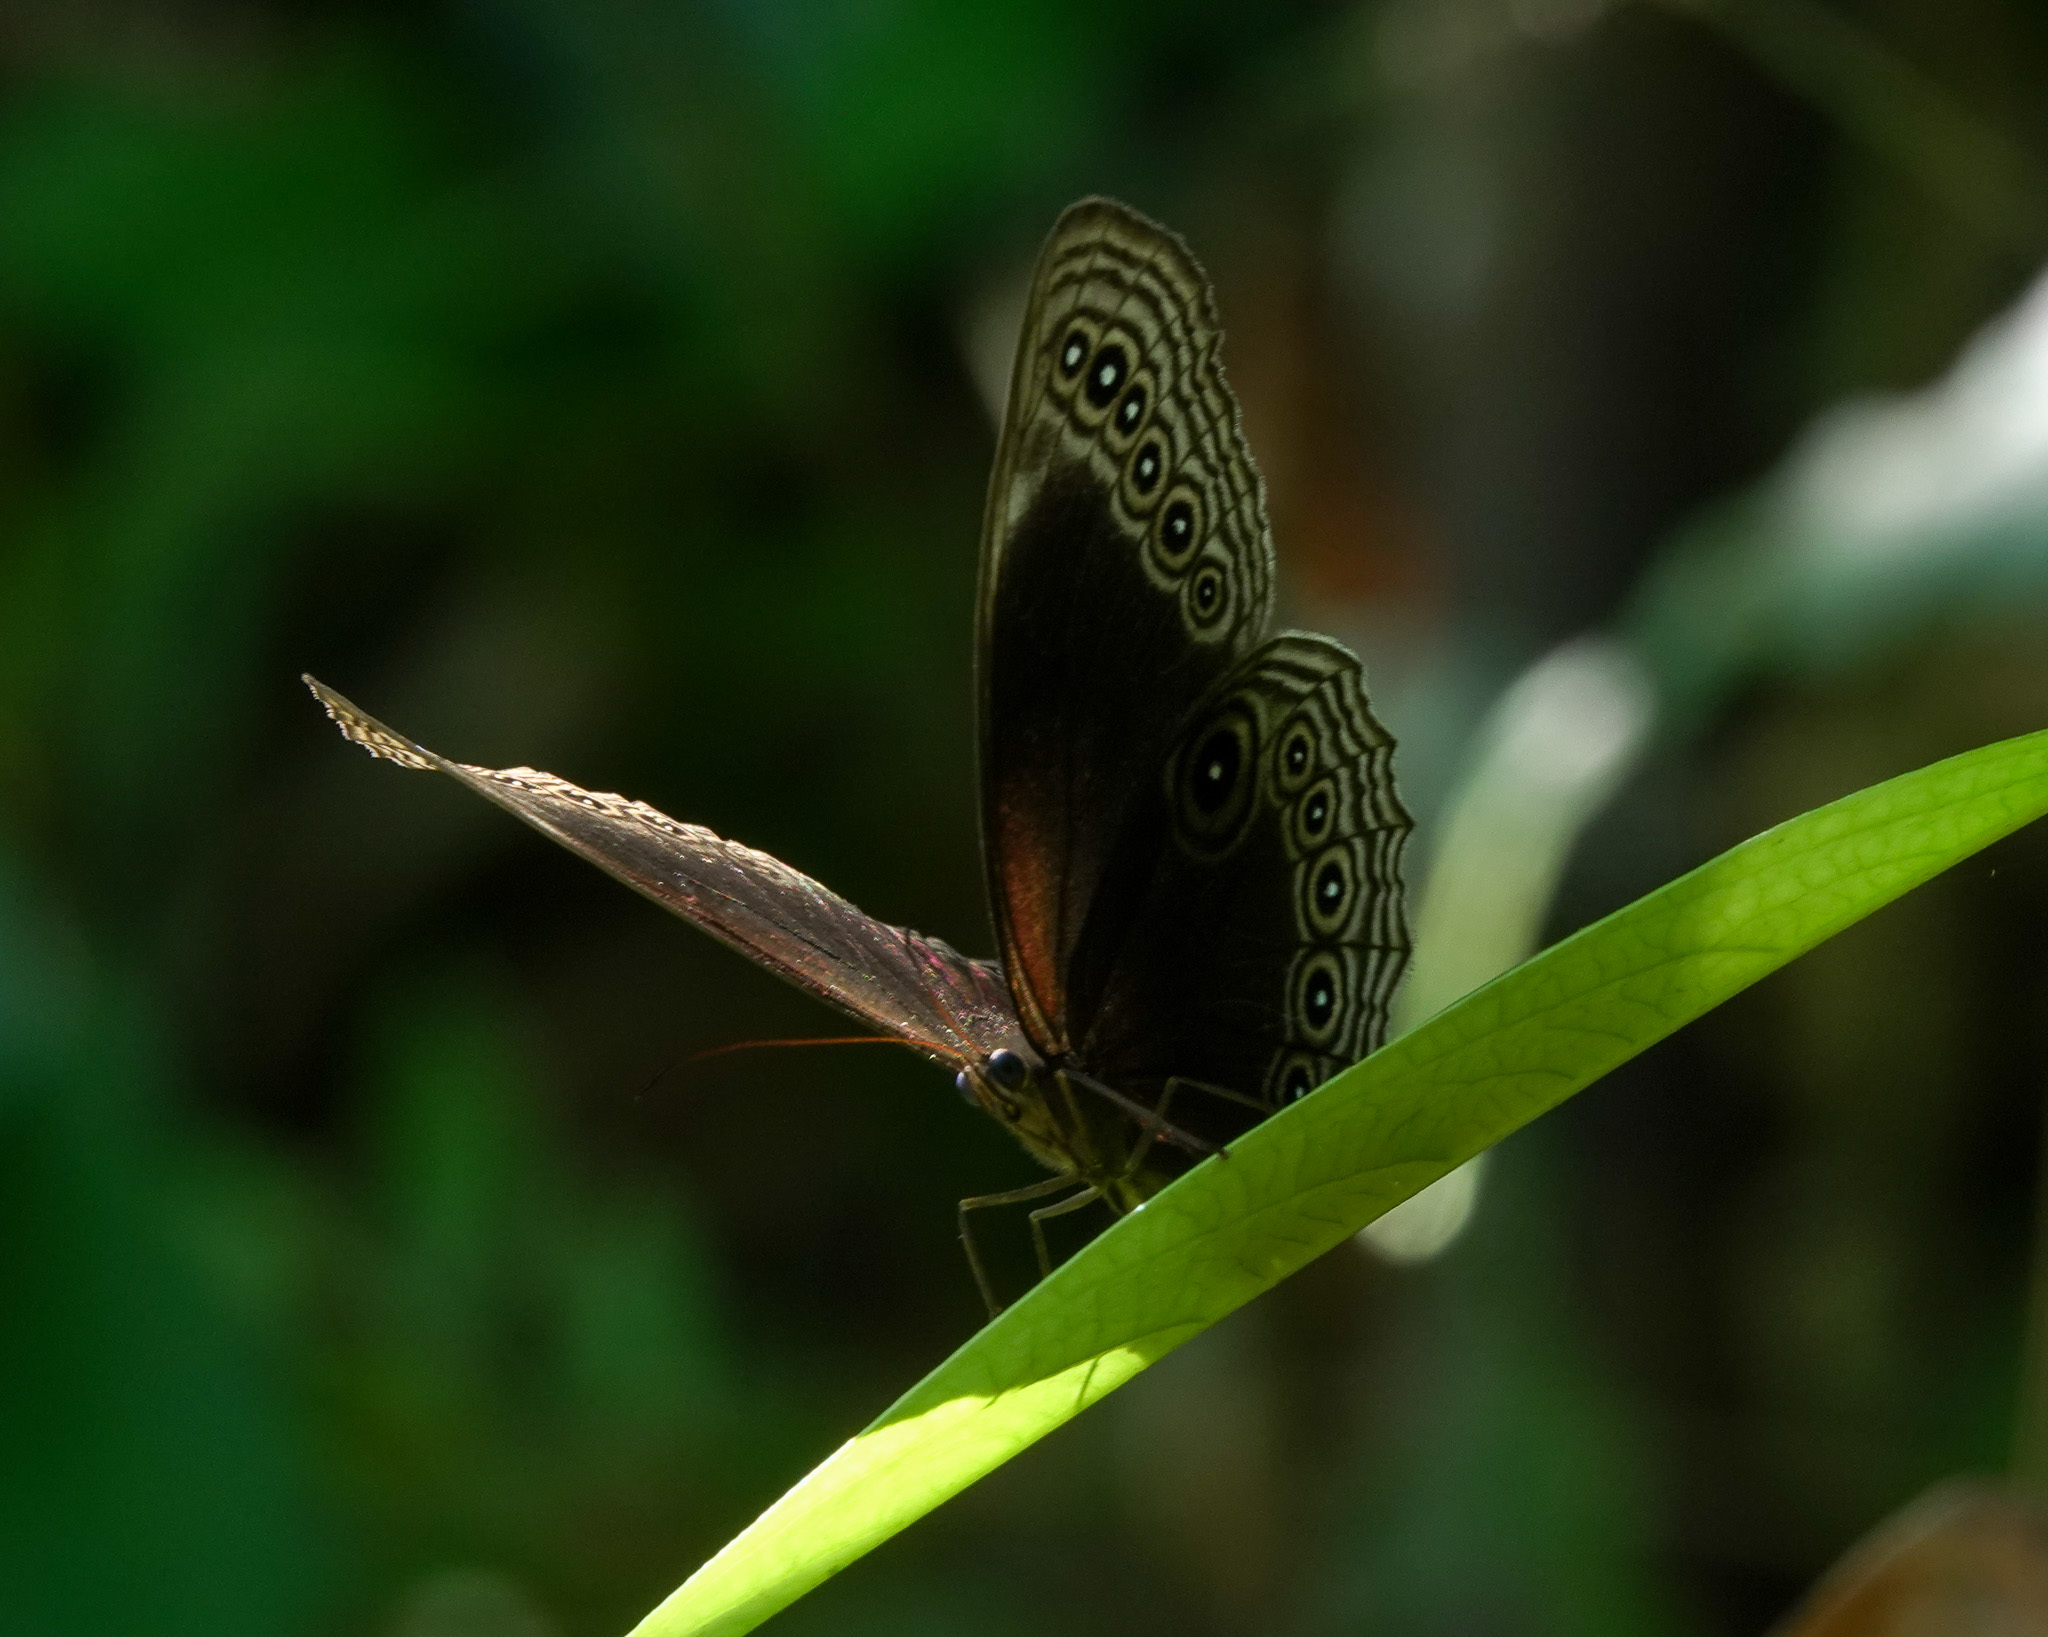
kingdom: Animalia
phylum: Arthropoda
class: Insecta
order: Lepidoptera
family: Nymphalidae
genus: Ethope
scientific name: Ethope himachala
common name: Dusky diadem
